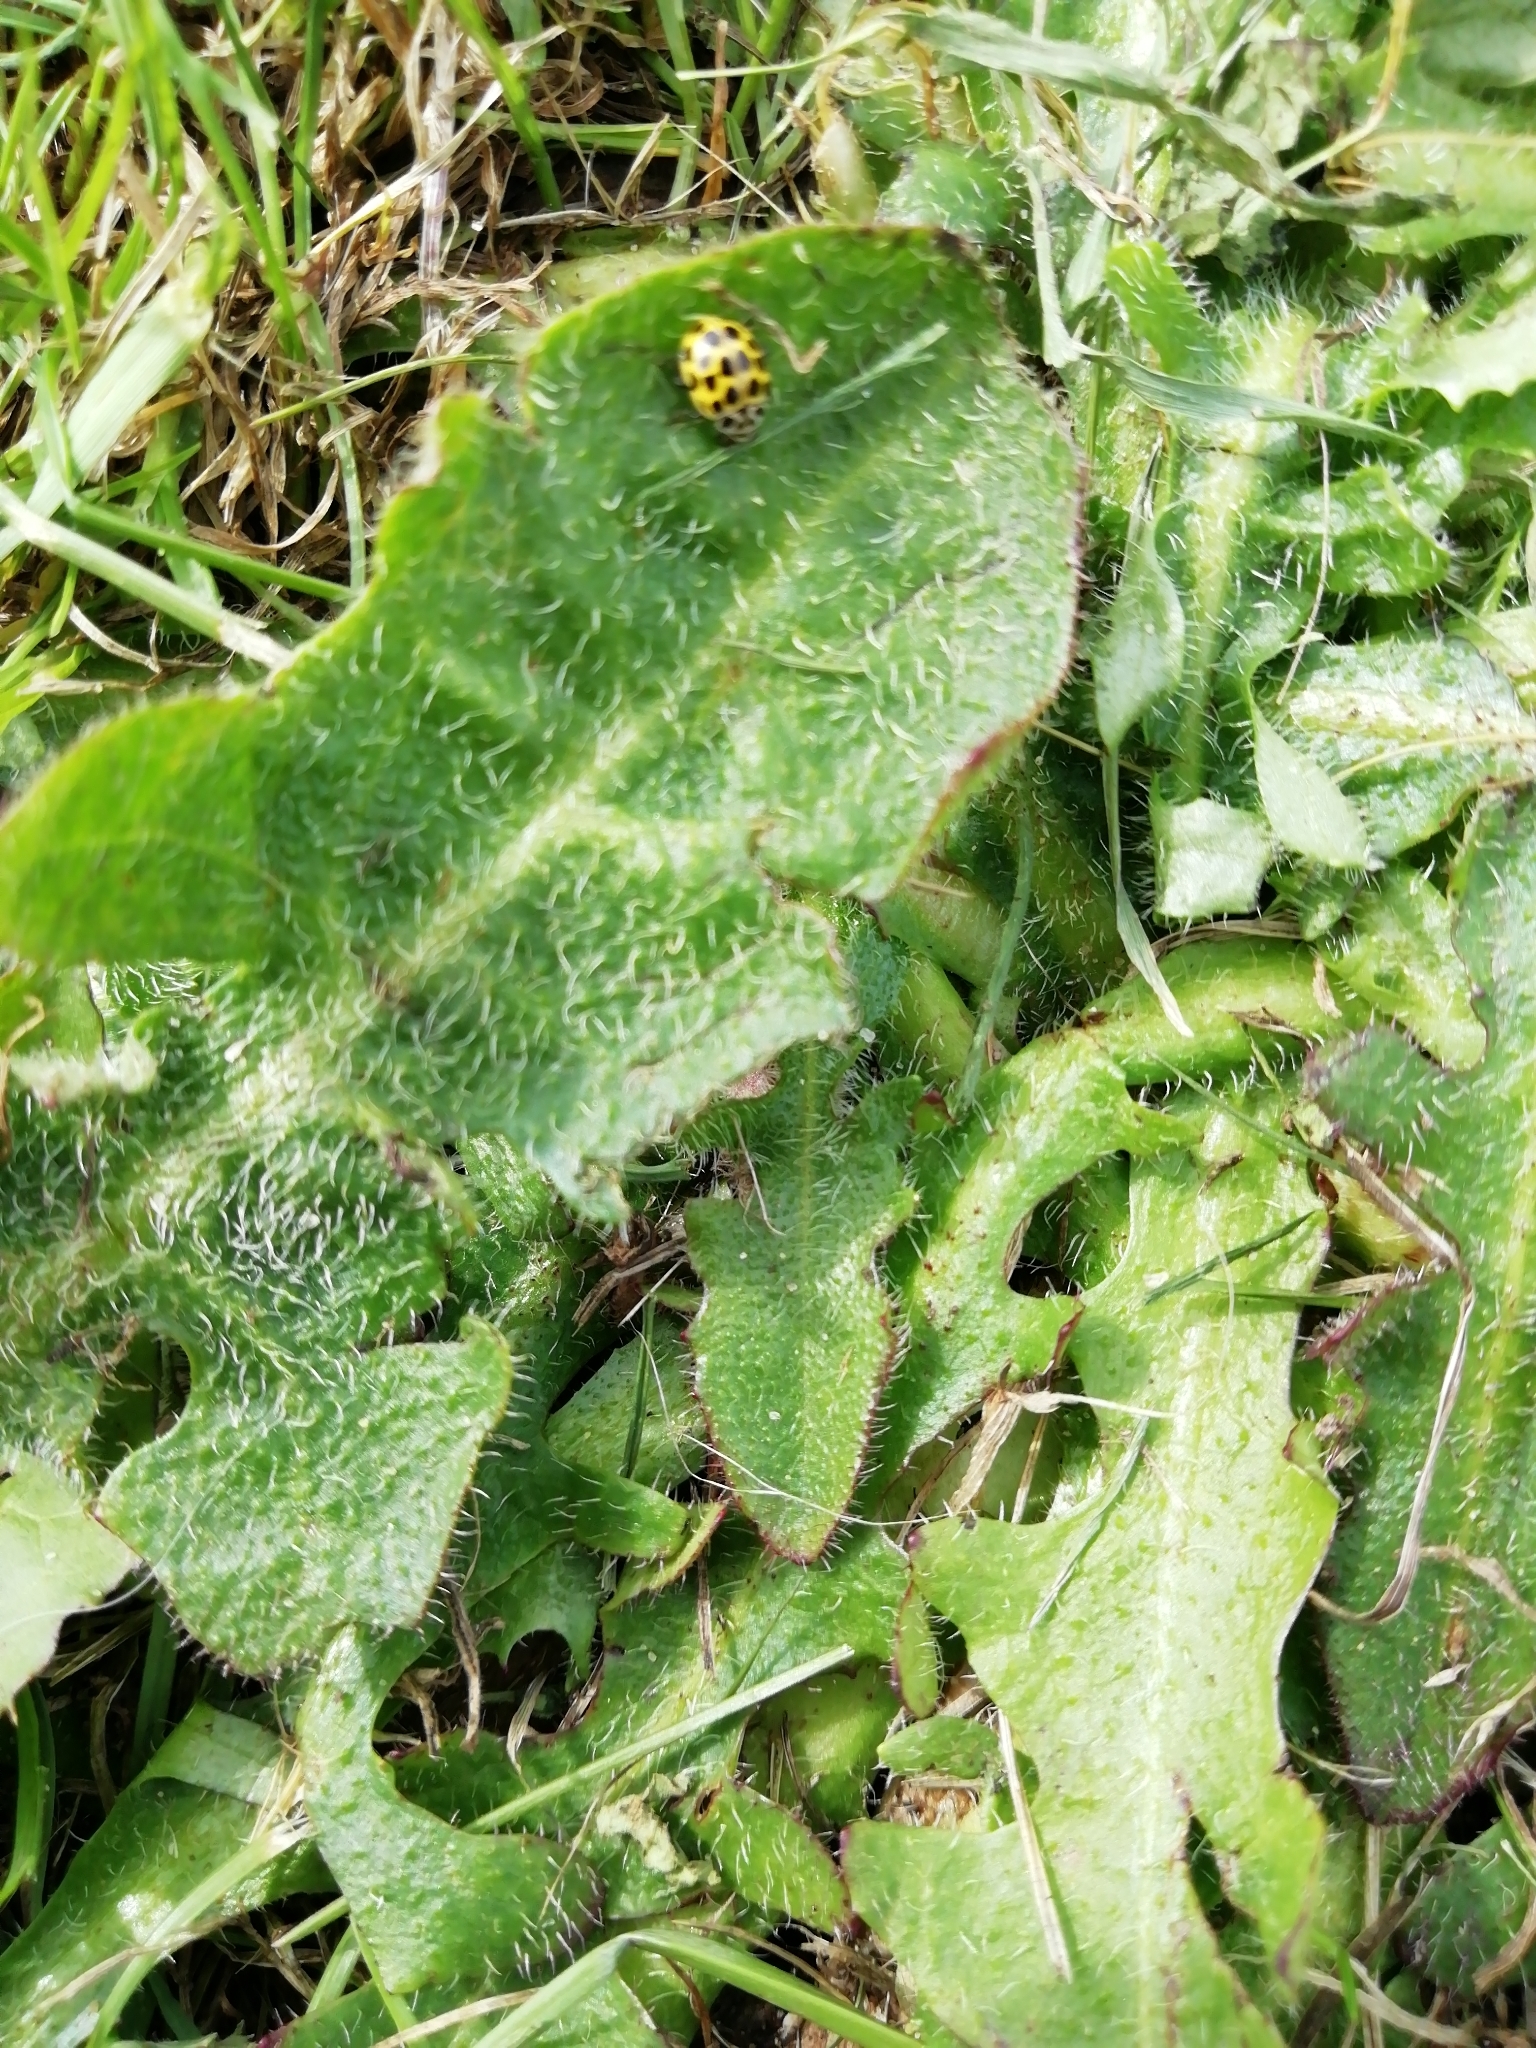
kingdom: Animalia
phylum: Arthropoda
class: Insecta
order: Coleoptera
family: Coccinellidae
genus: Psyllobora
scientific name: Psyllobora vigintiduopunctata
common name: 22-spot ladybird
